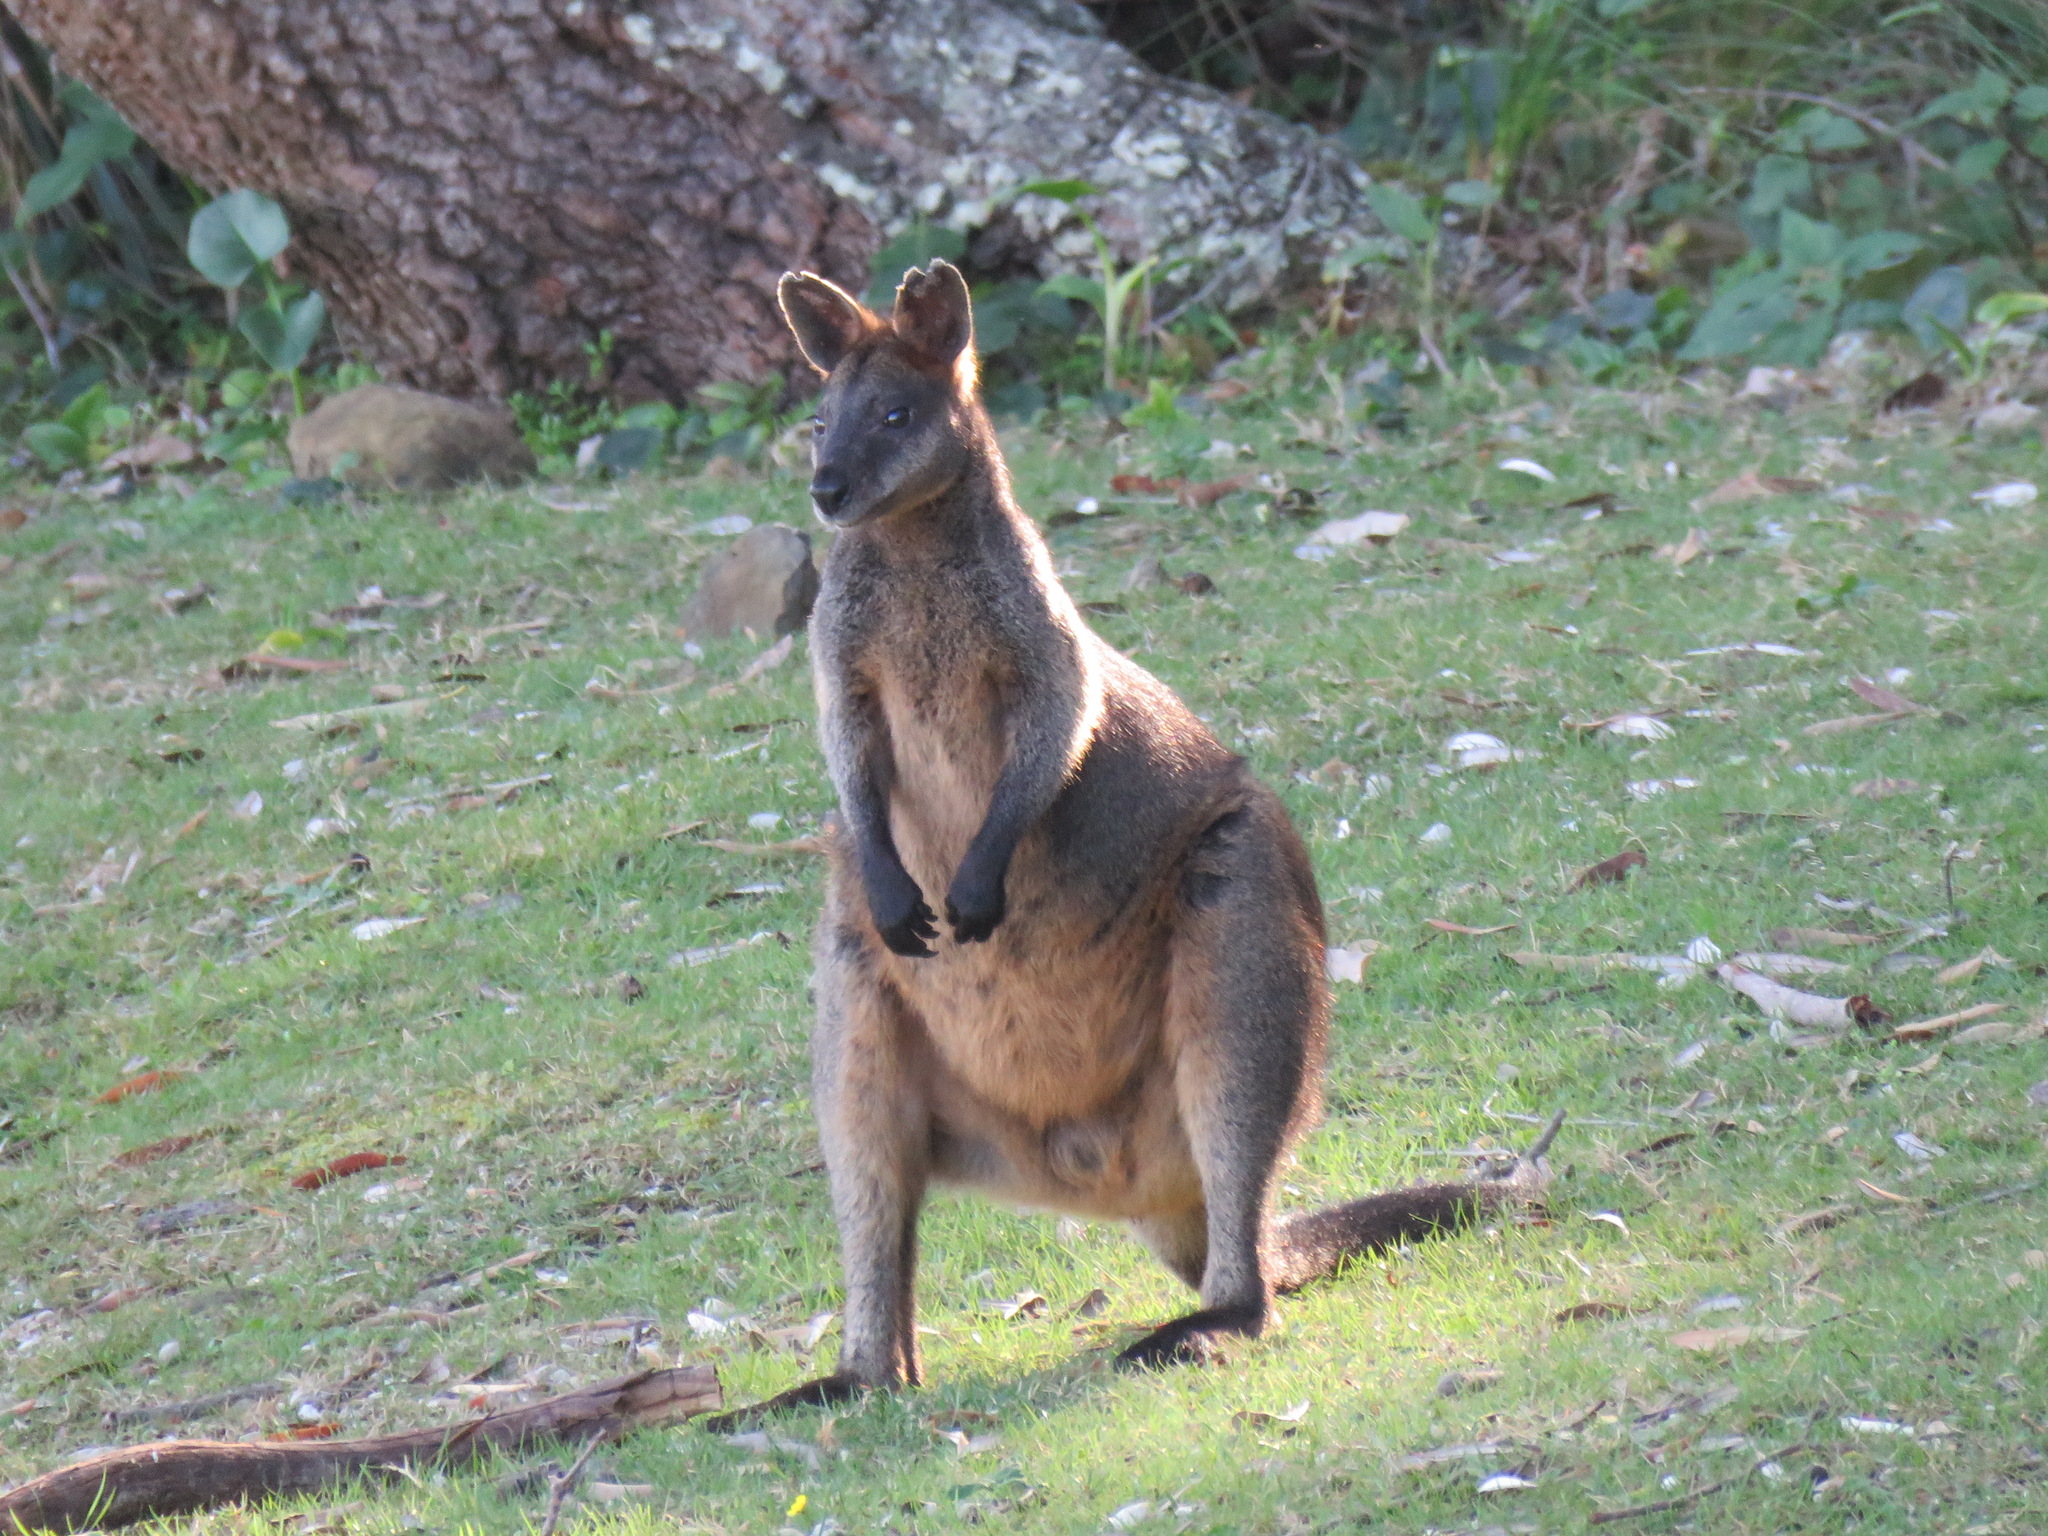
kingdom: Animalia
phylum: Chordata
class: Mammalia
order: Diprotodontia
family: Macropodidae
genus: Wallabia
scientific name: Wallabia bicolor
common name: Swamp wallaby
